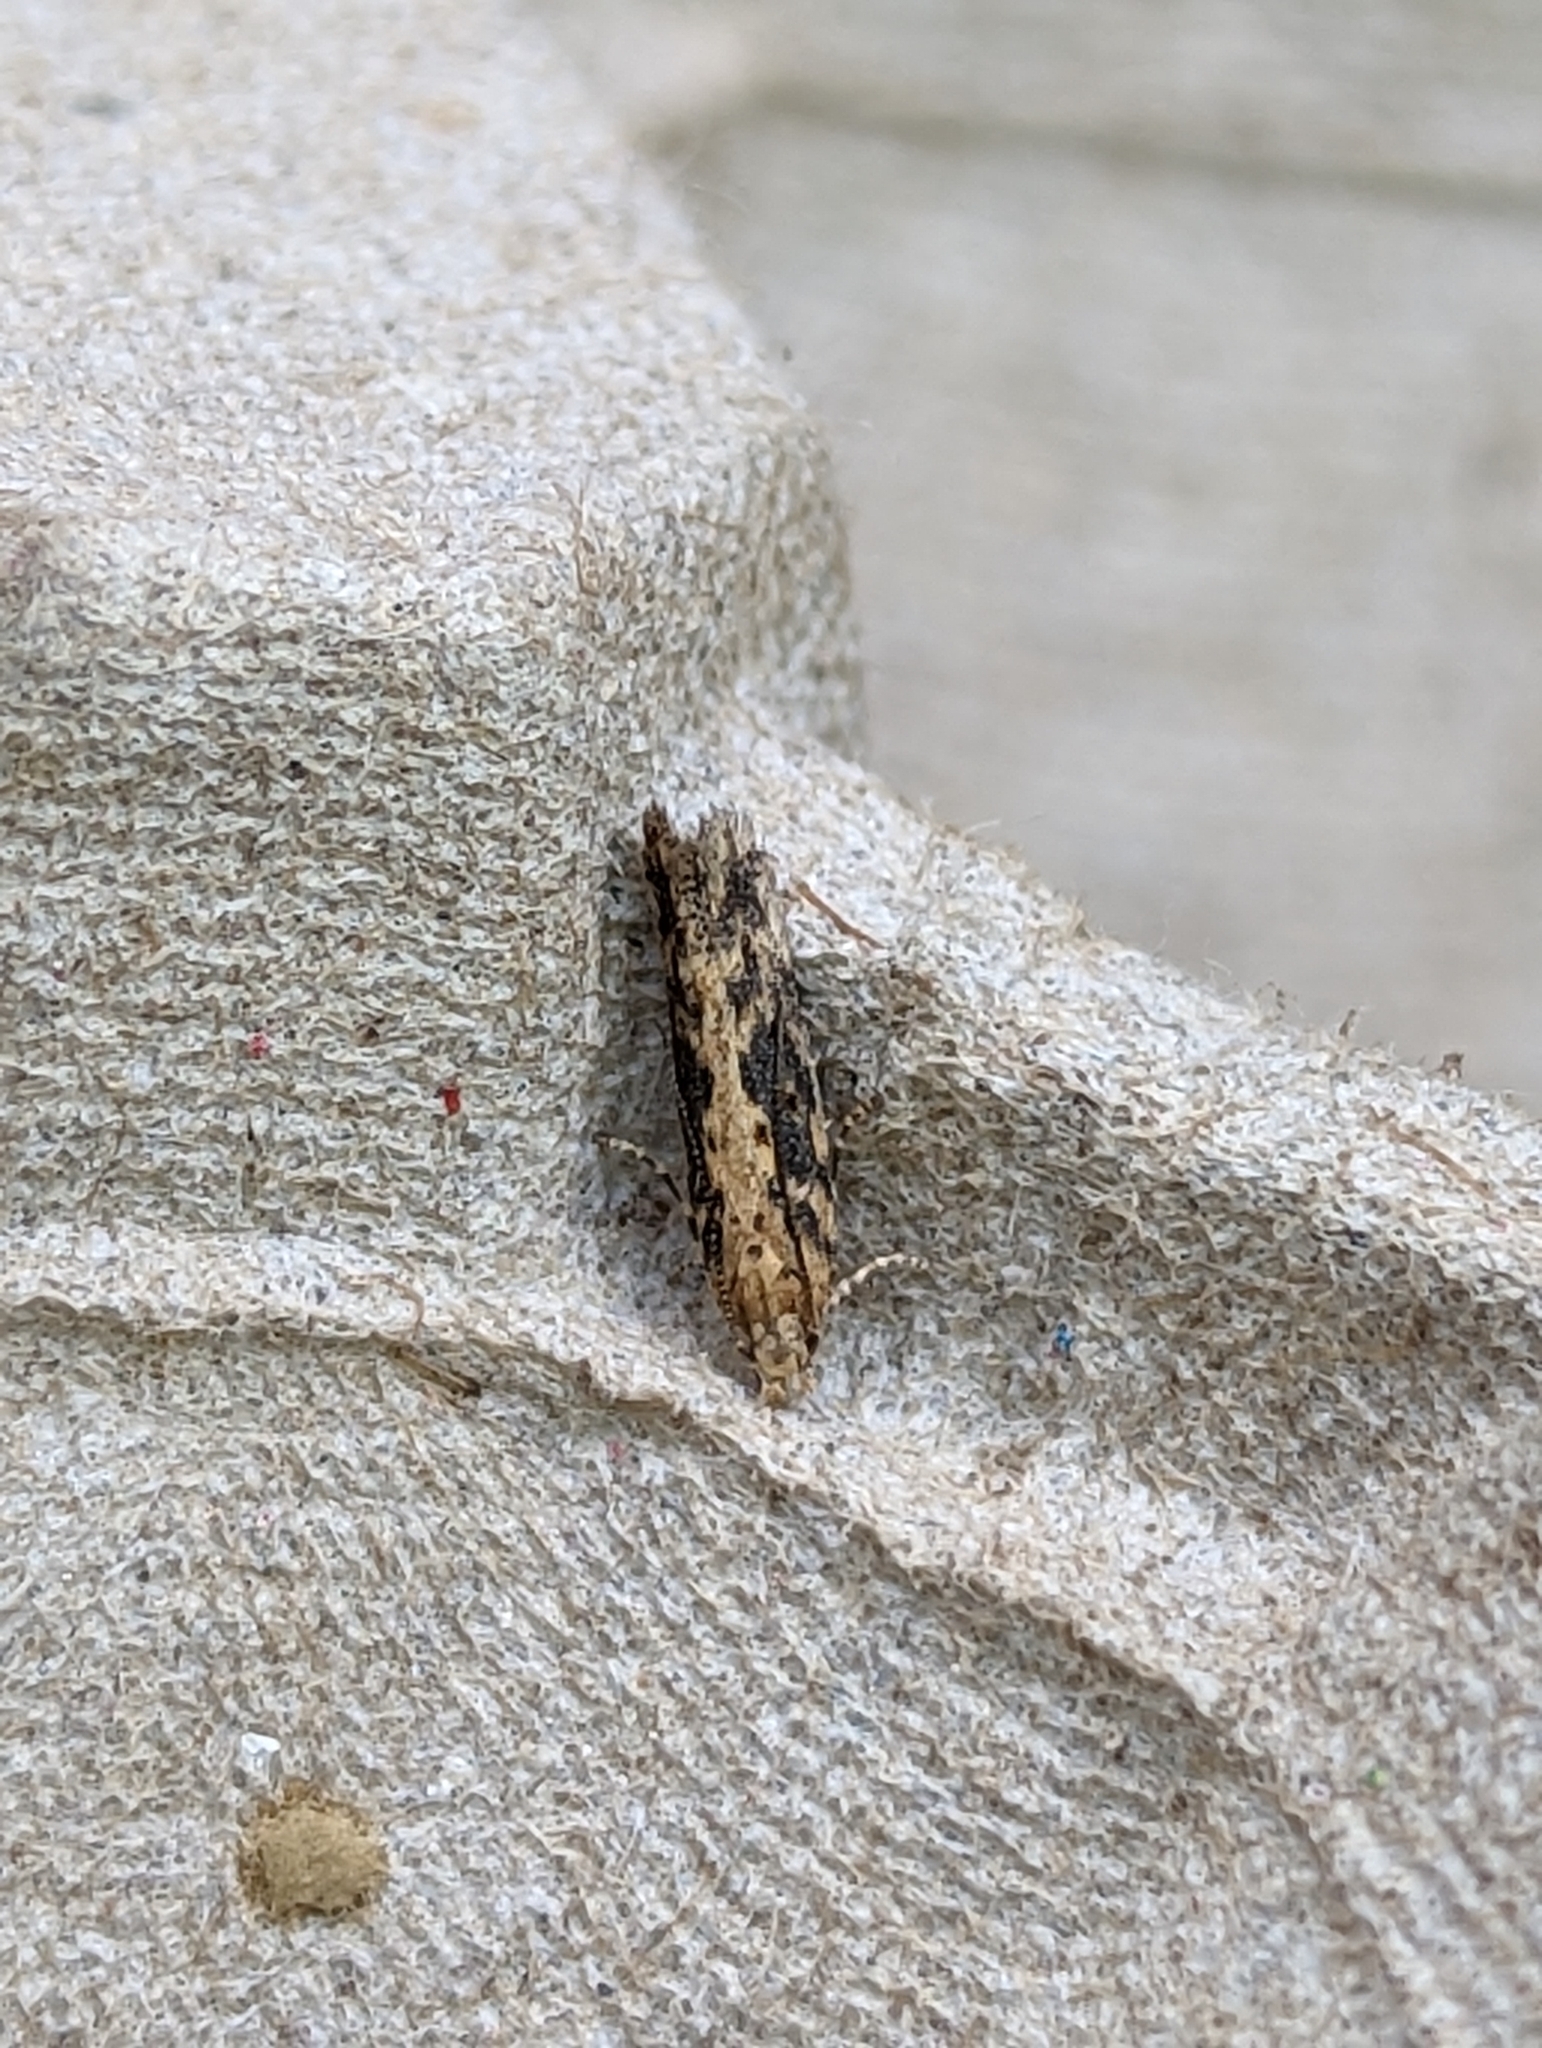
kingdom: Animalia
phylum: Arthropoda
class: Insecta
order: Lepidoptera
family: Gelechiidae
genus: Scrobipalpa
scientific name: Scrobipalpa ocellatella
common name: Beet moth
